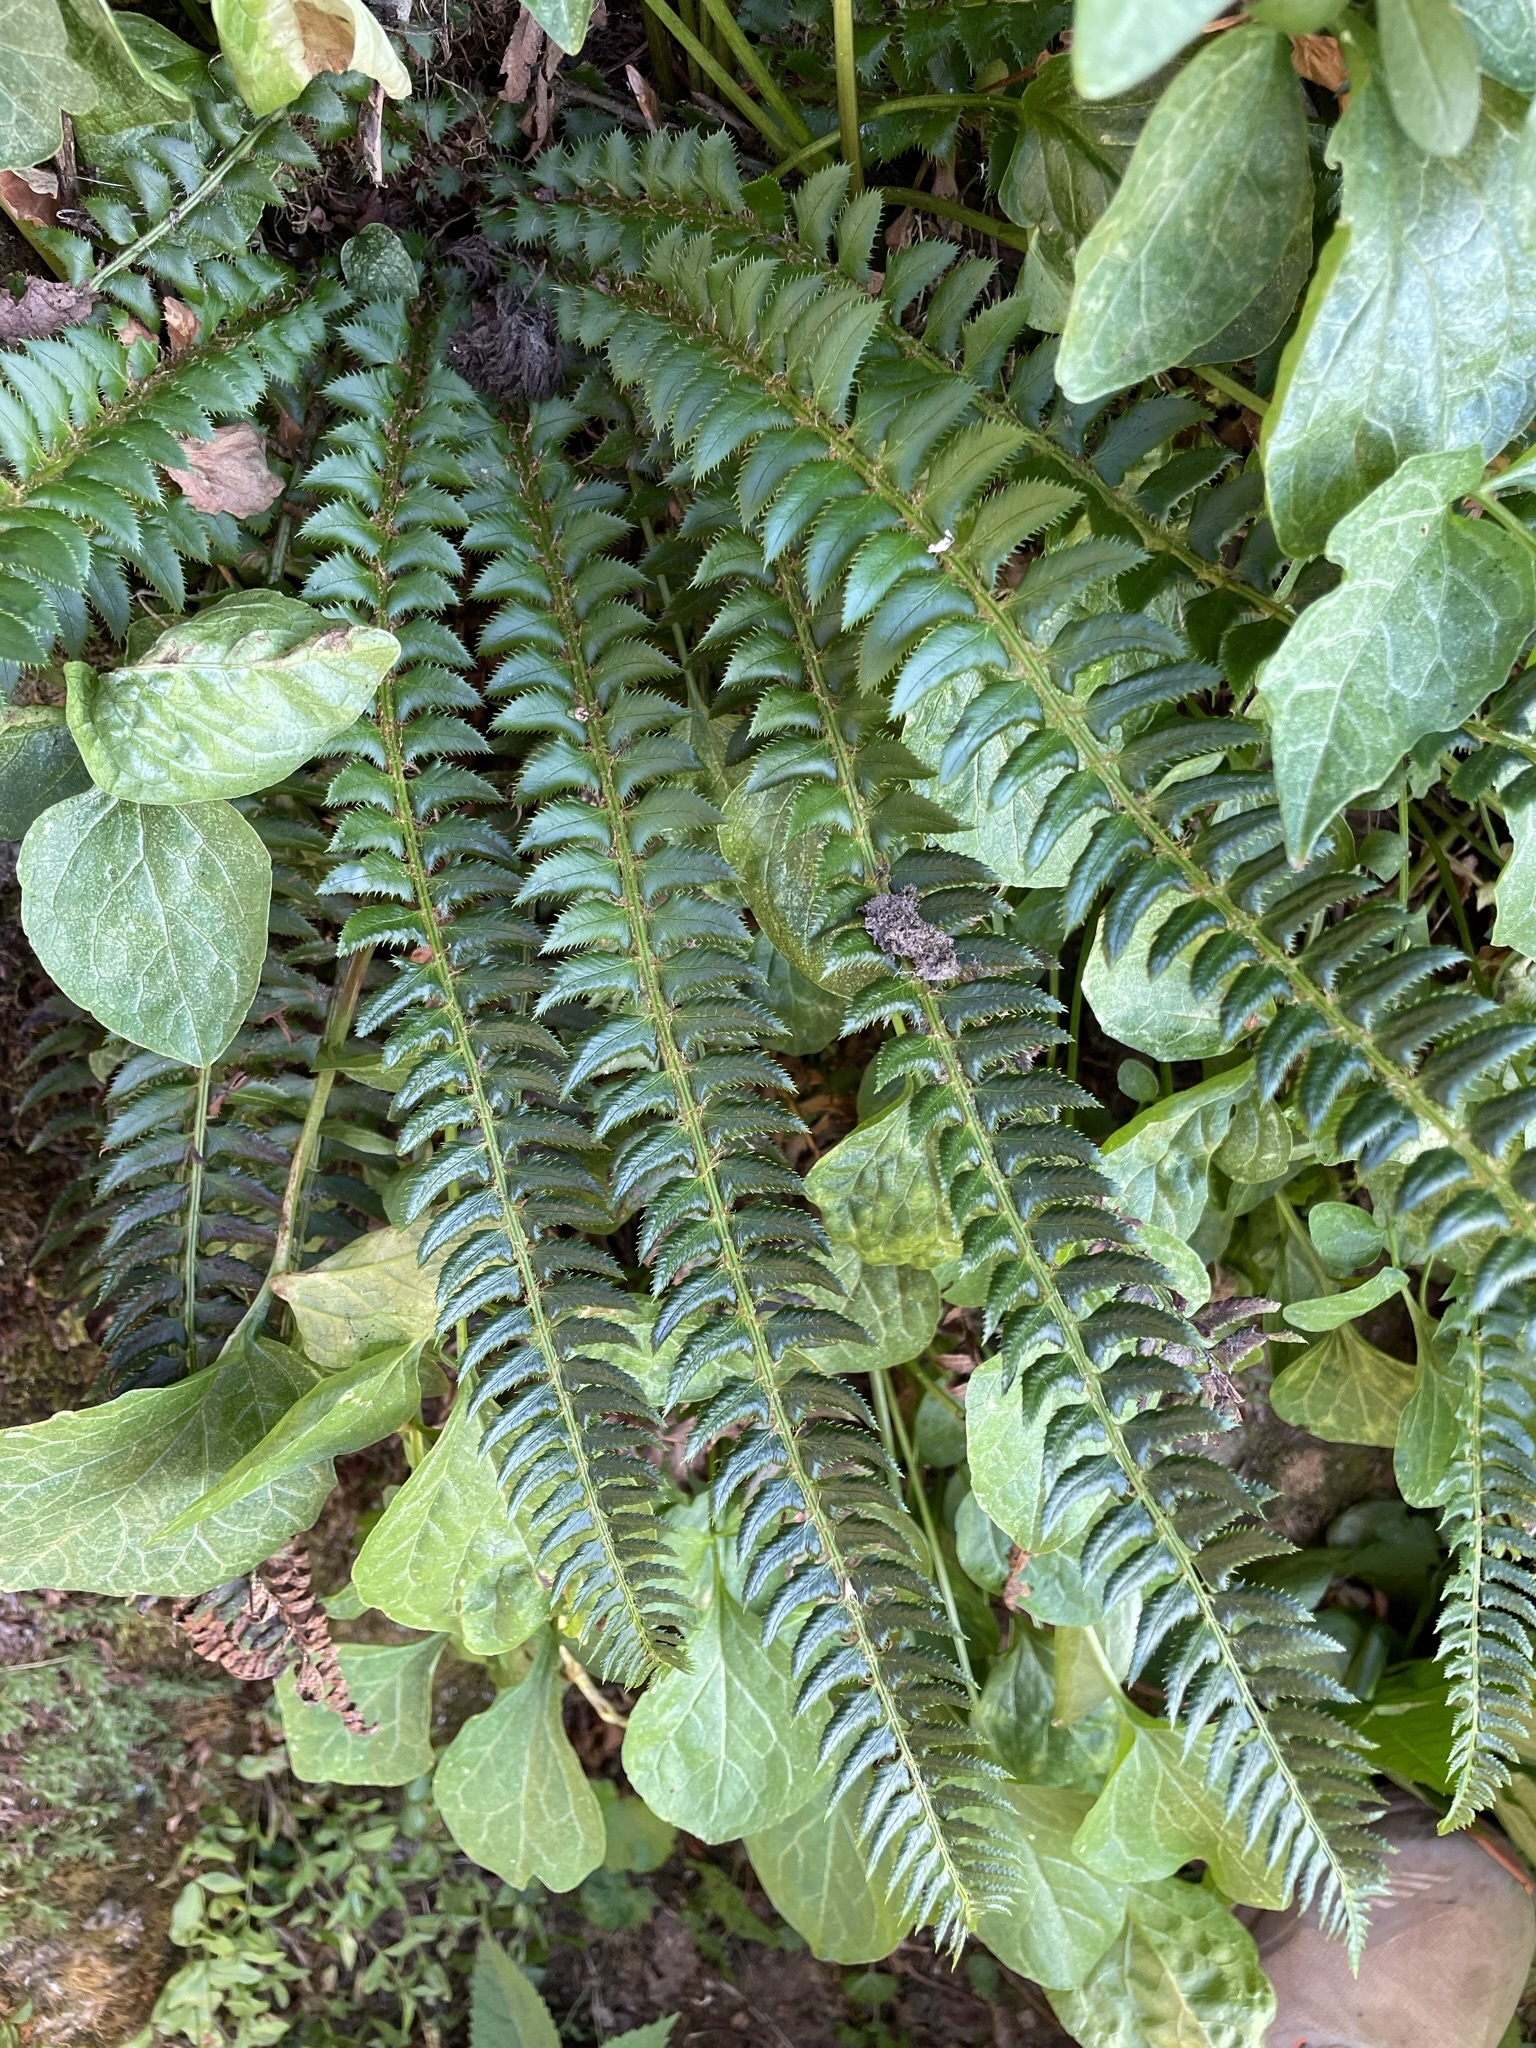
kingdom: Plantae
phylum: Tracheophyta
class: Polypodiopsida
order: Polypodiales
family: Dryopteridaceae
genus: Polystichum
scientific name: Polystichum lonchitis
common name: Holly fern
